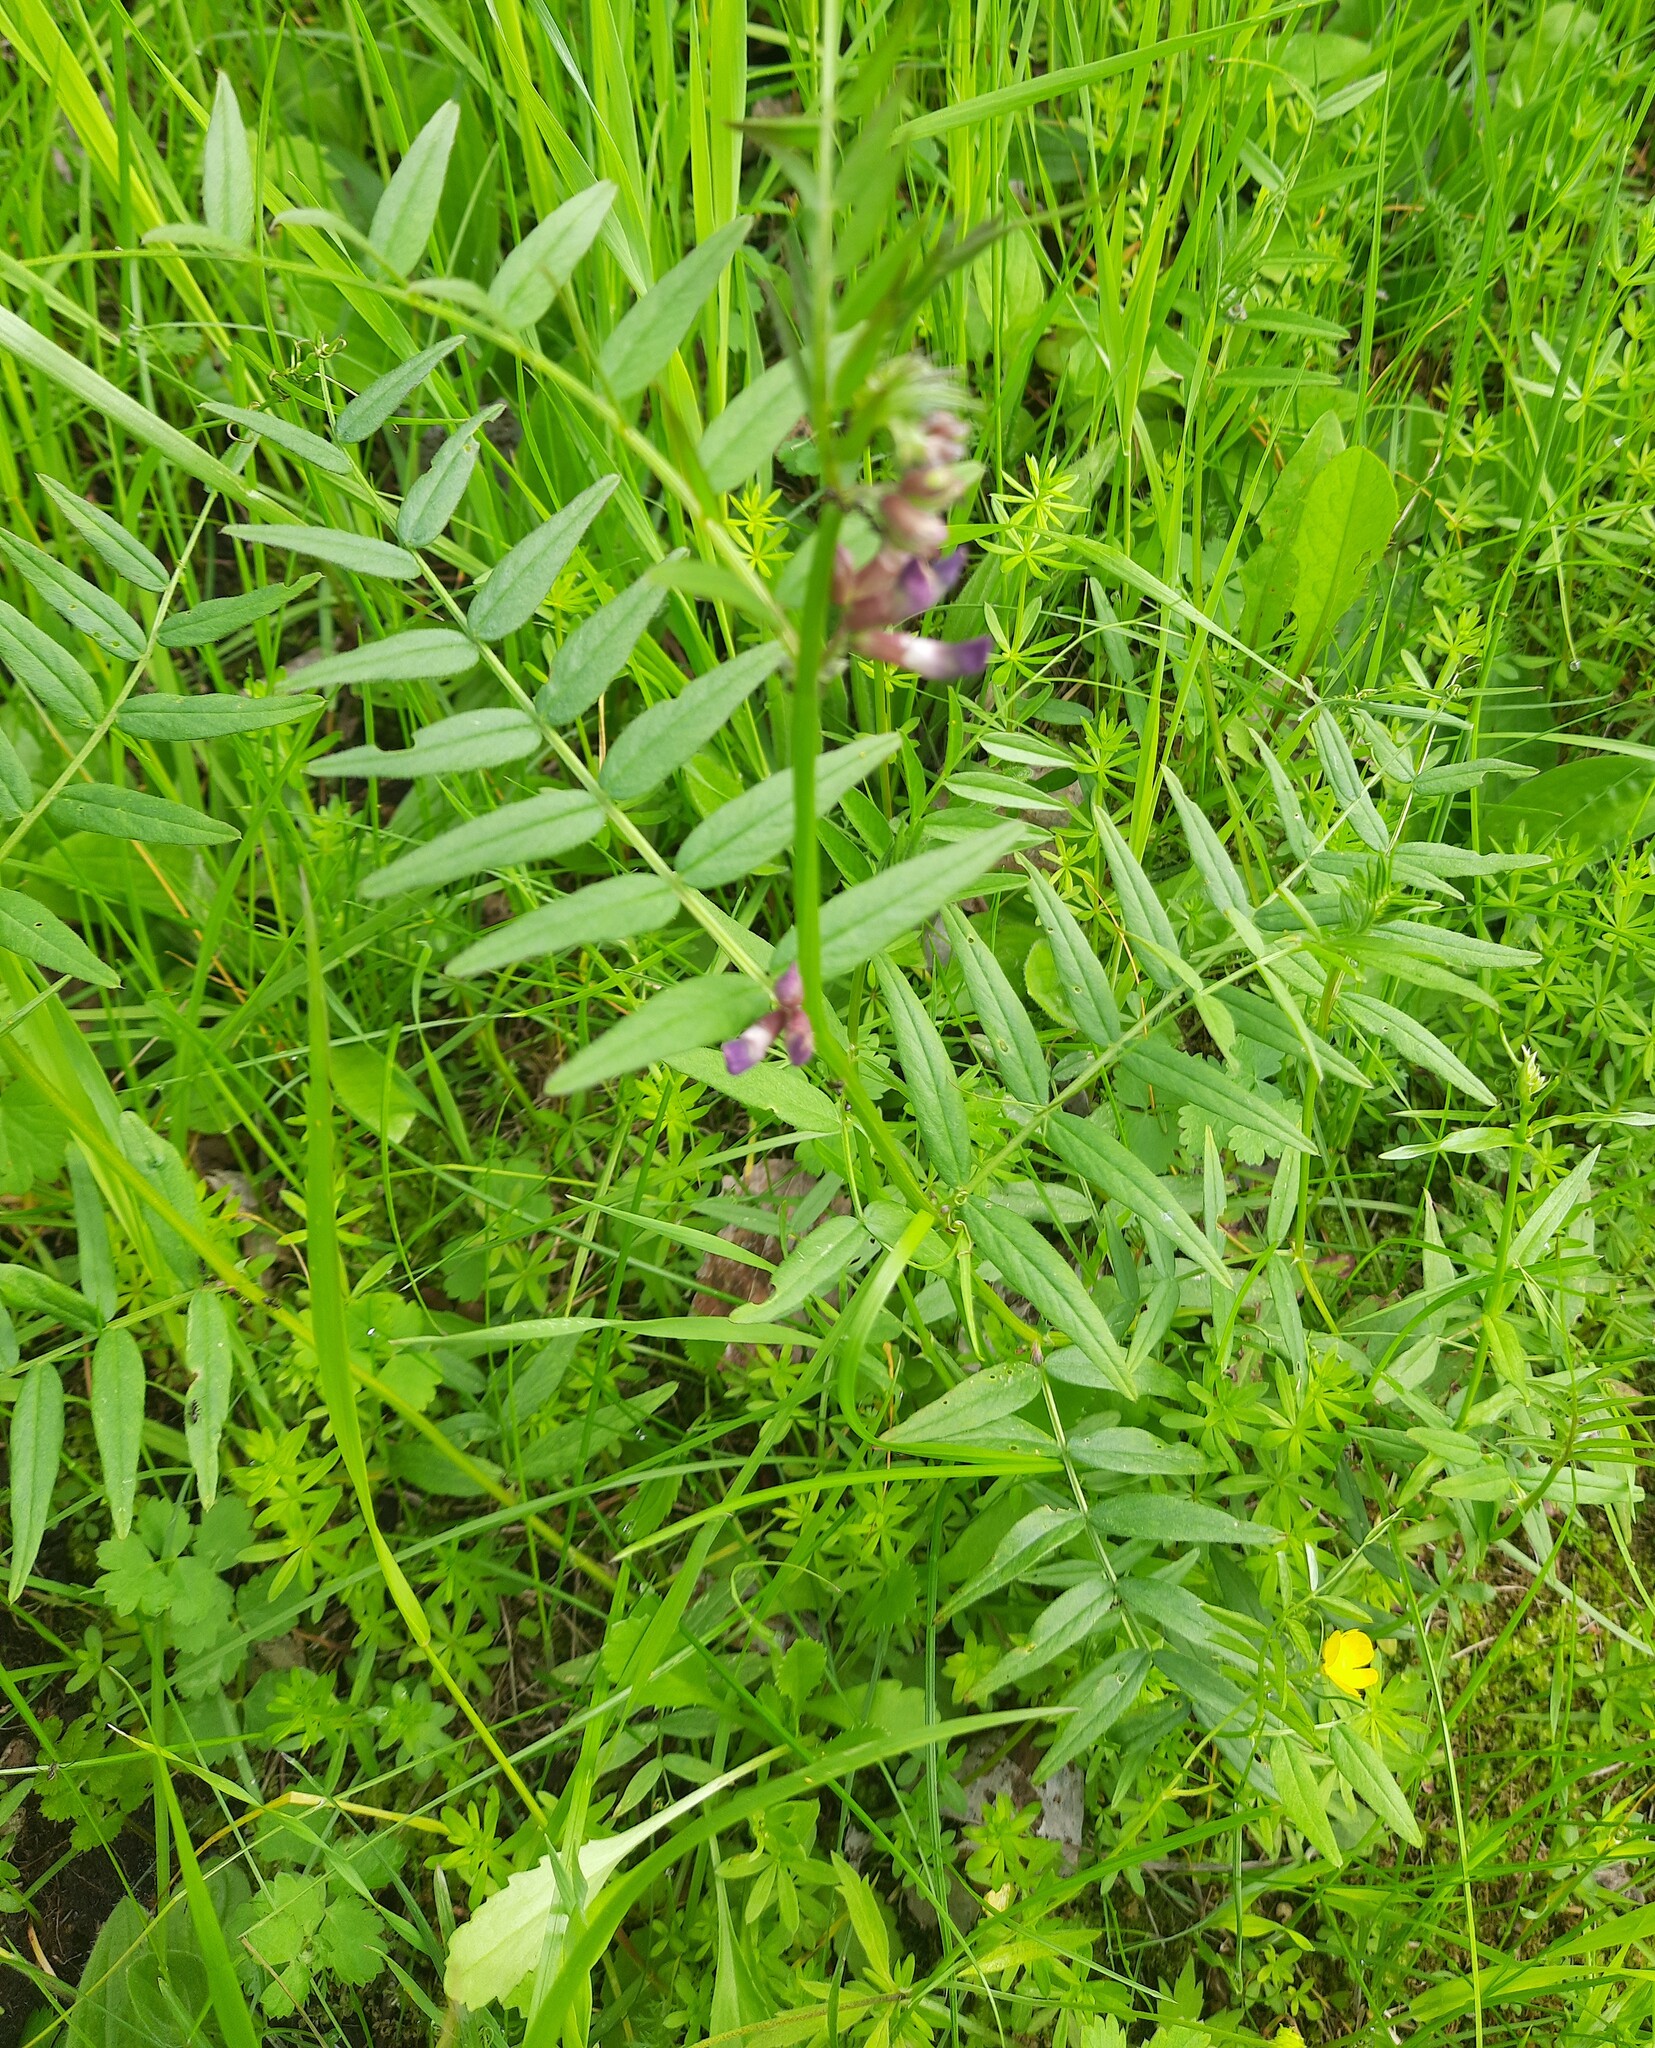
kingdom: Plantae
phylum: Tracheophyta
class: Magnoliopsida
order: Fabales
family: Fabaceae
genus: Vicia
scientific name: Vicia sepium
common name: Bush vetch
